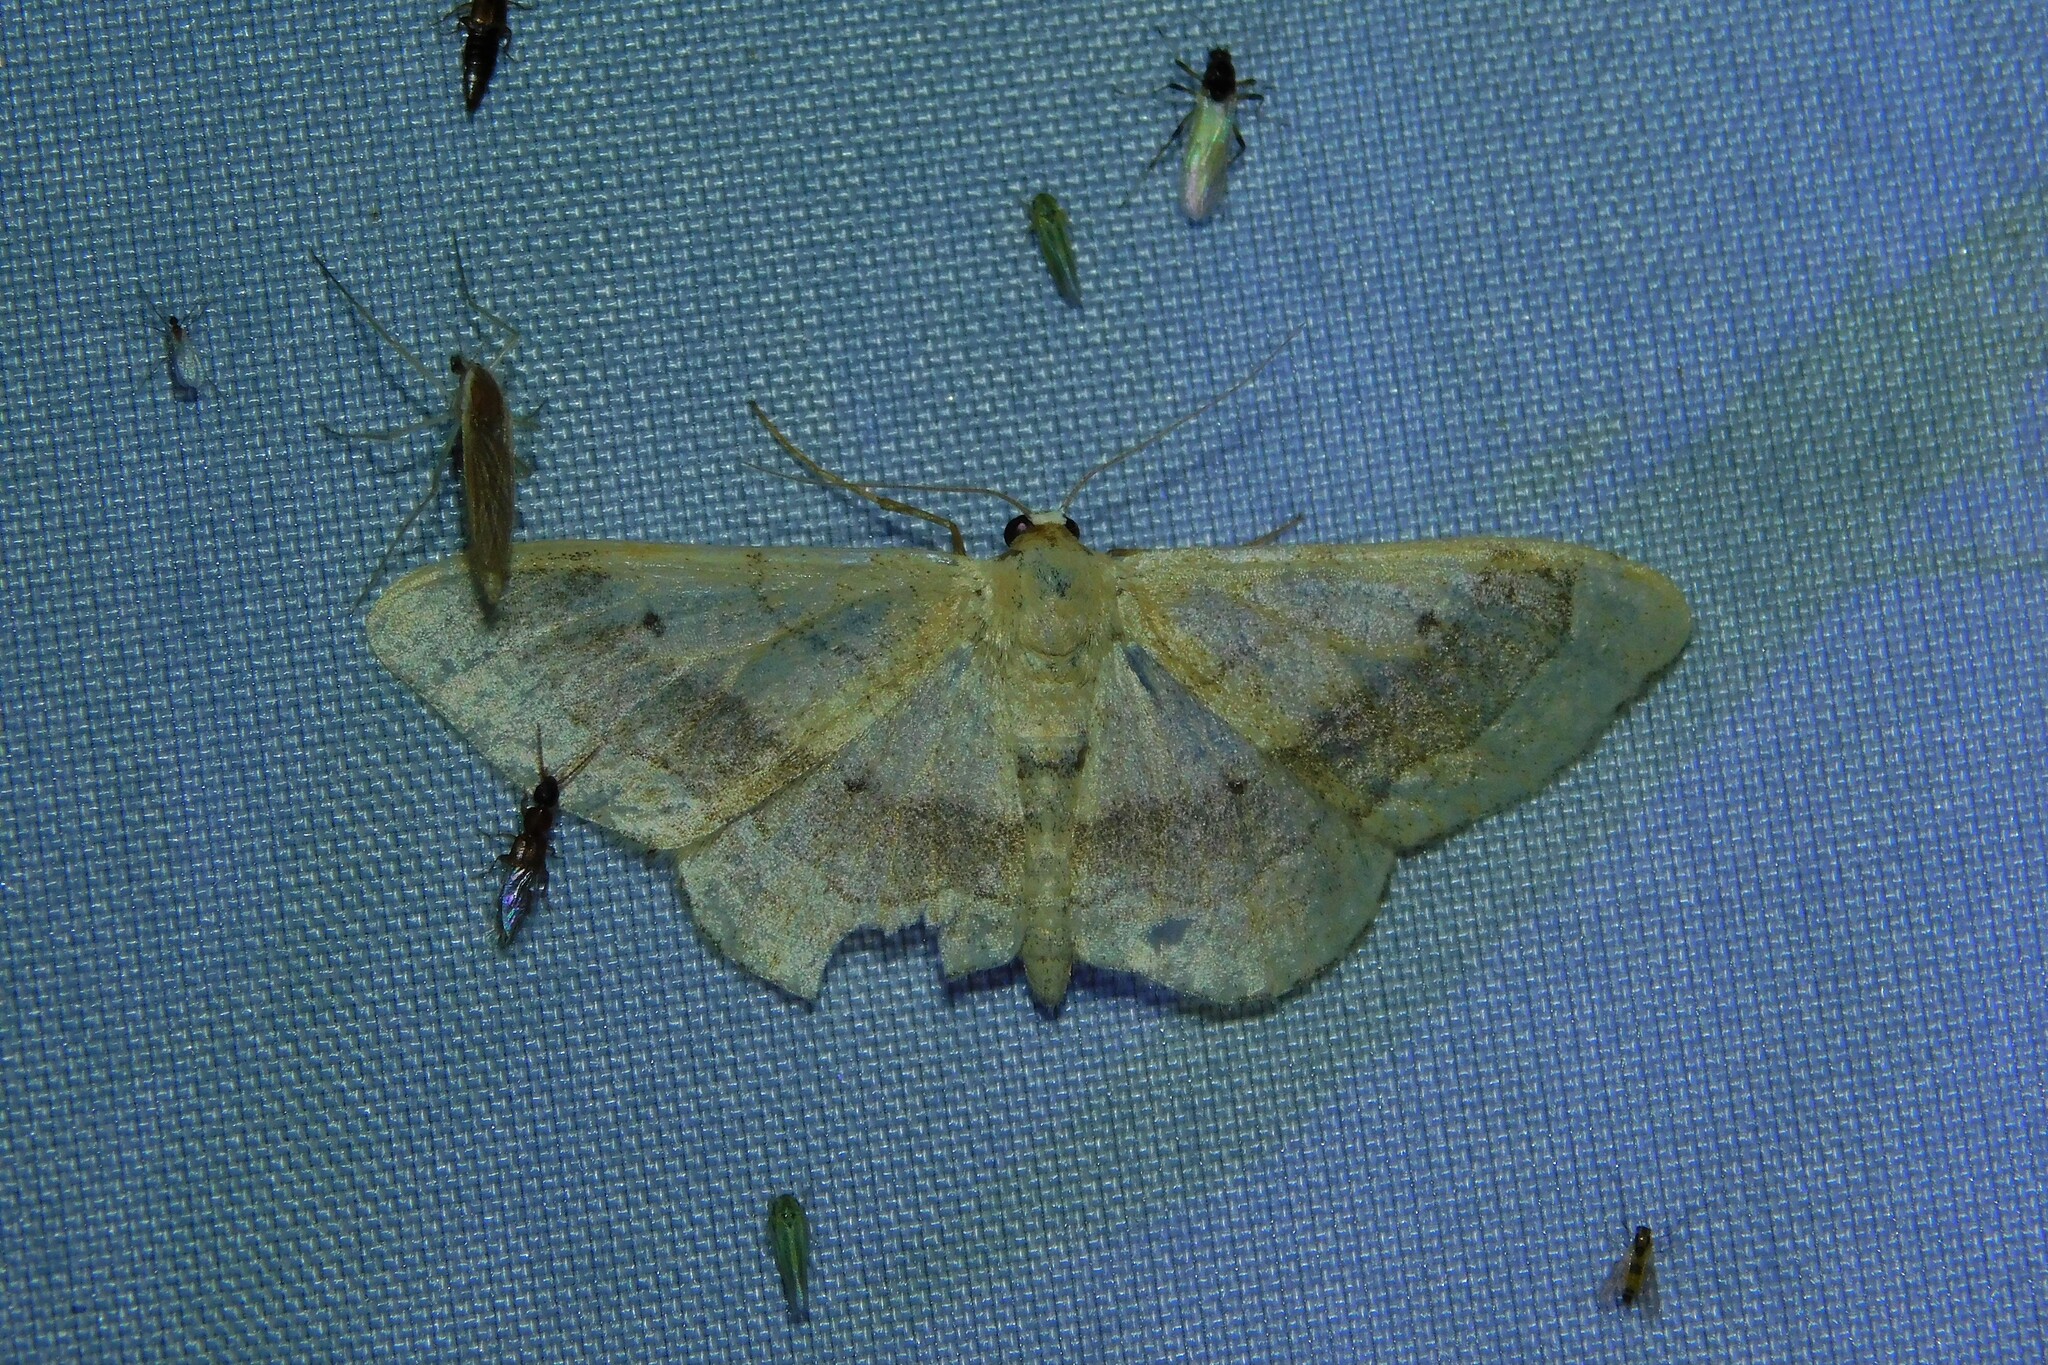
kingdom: Animalia
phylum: Arthropoda
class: Insecta
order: Lepidoptera
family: Geometridae
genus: Idaea
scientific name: Idaea aversata
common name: Riband wave
